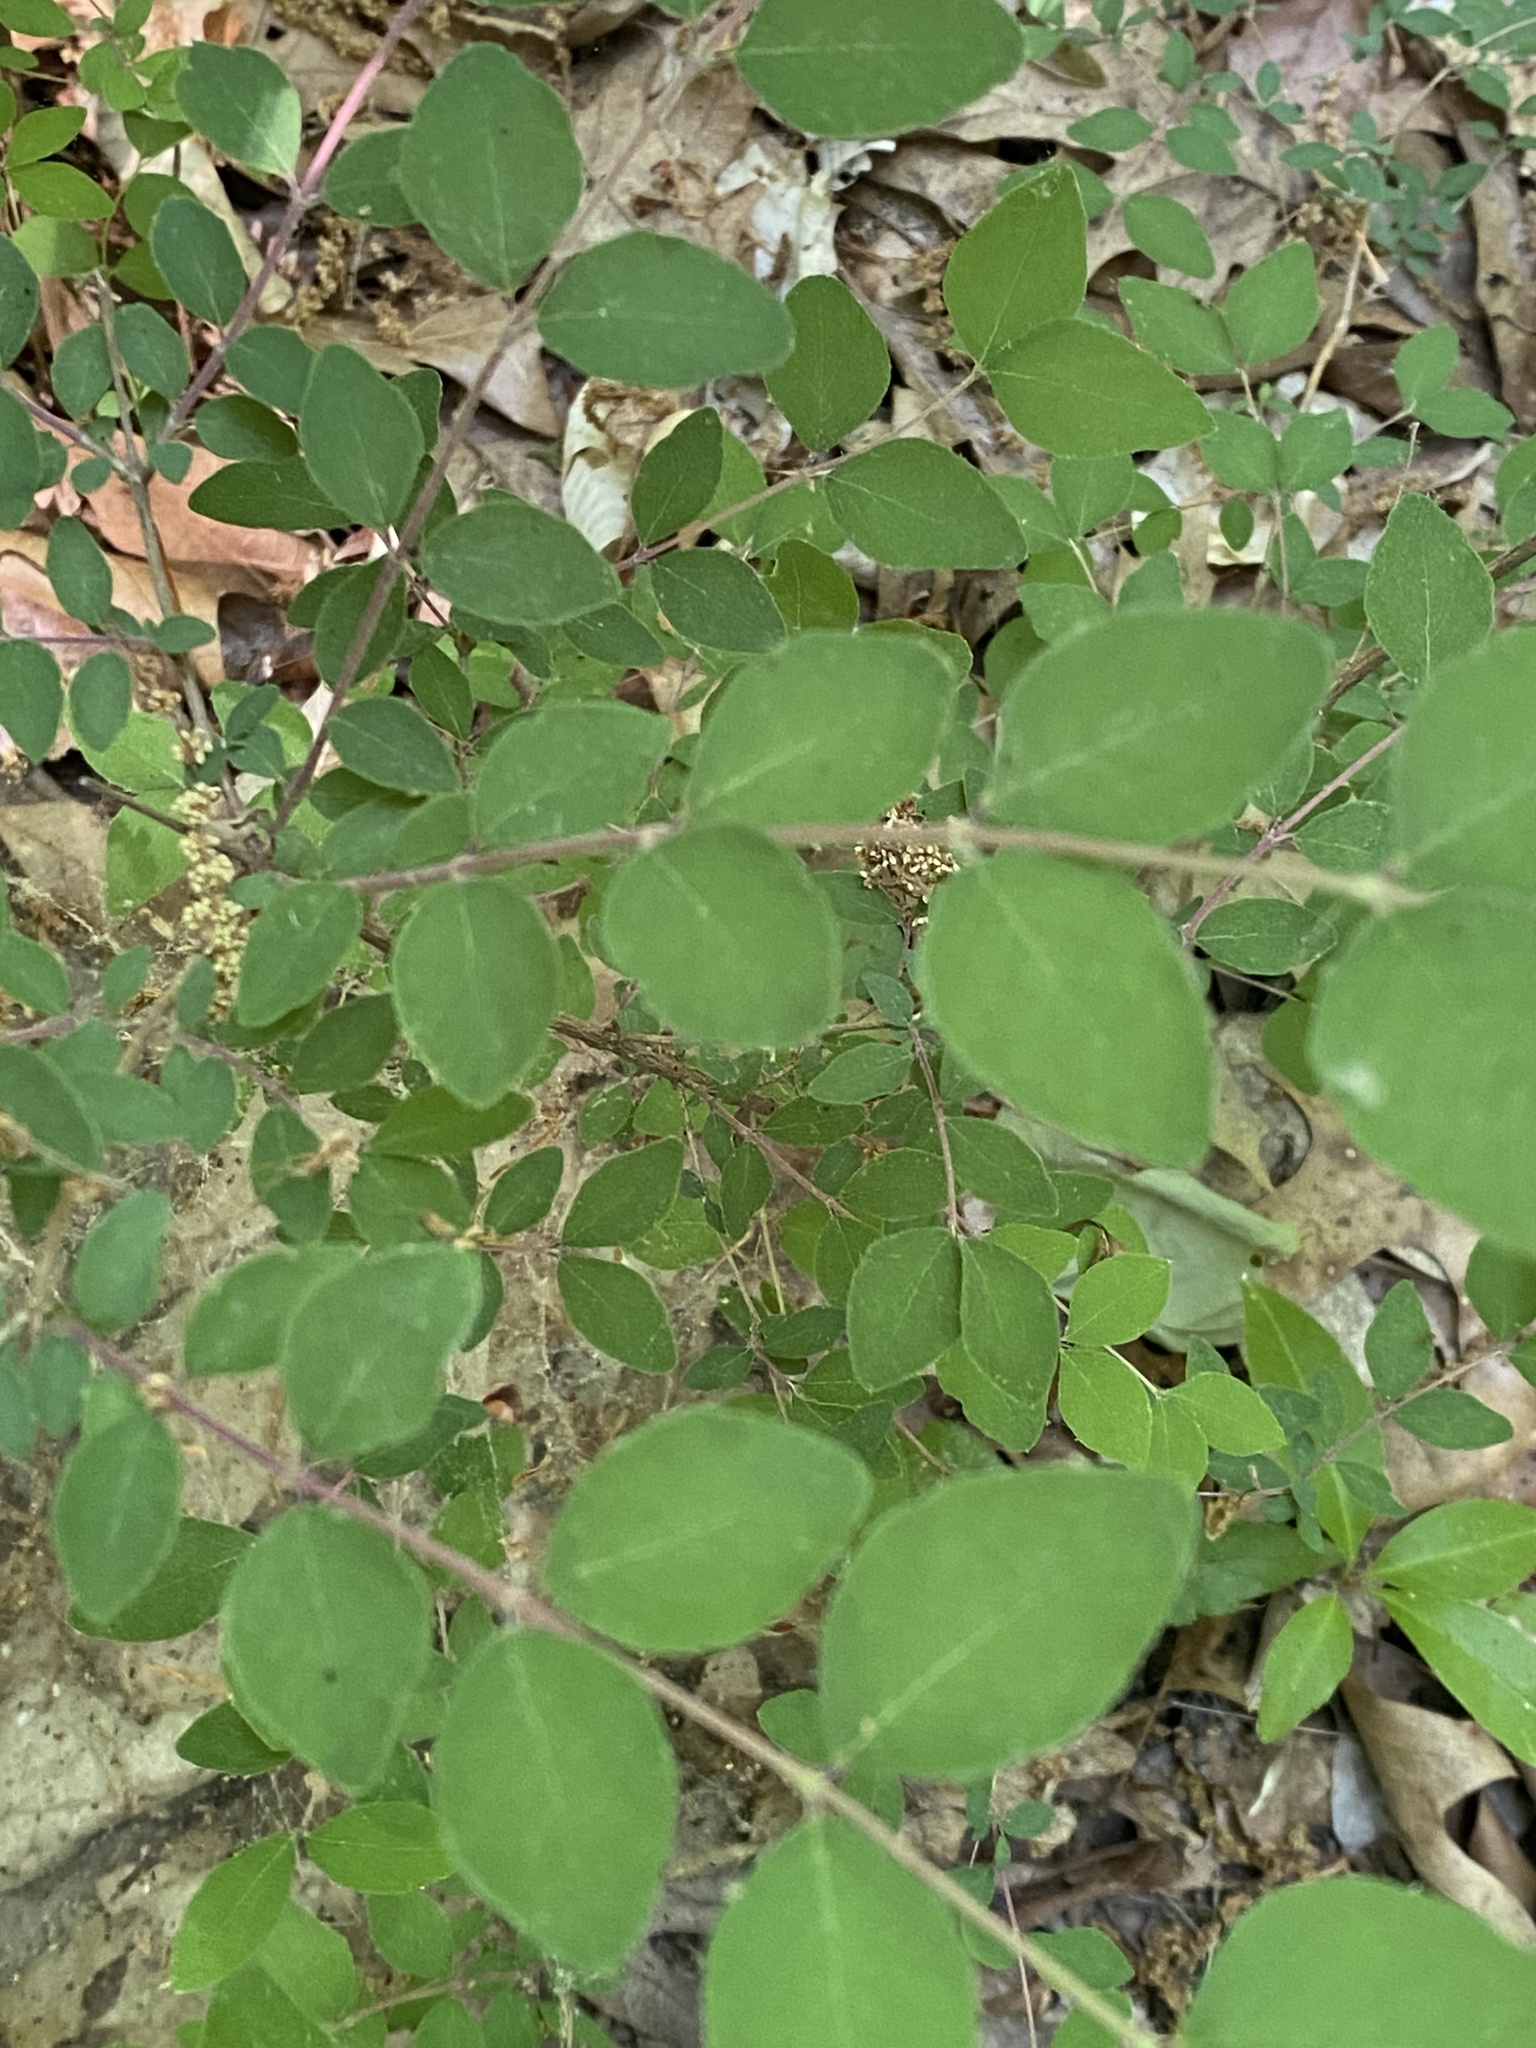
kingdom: Plantae
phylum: Tracheophyta
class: Magnoliopsida
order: Dipsacales
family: Caprifoliaceae
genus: Symphoricarpos
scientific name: Symphoricarpos orbiculatus
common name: Coralberry
